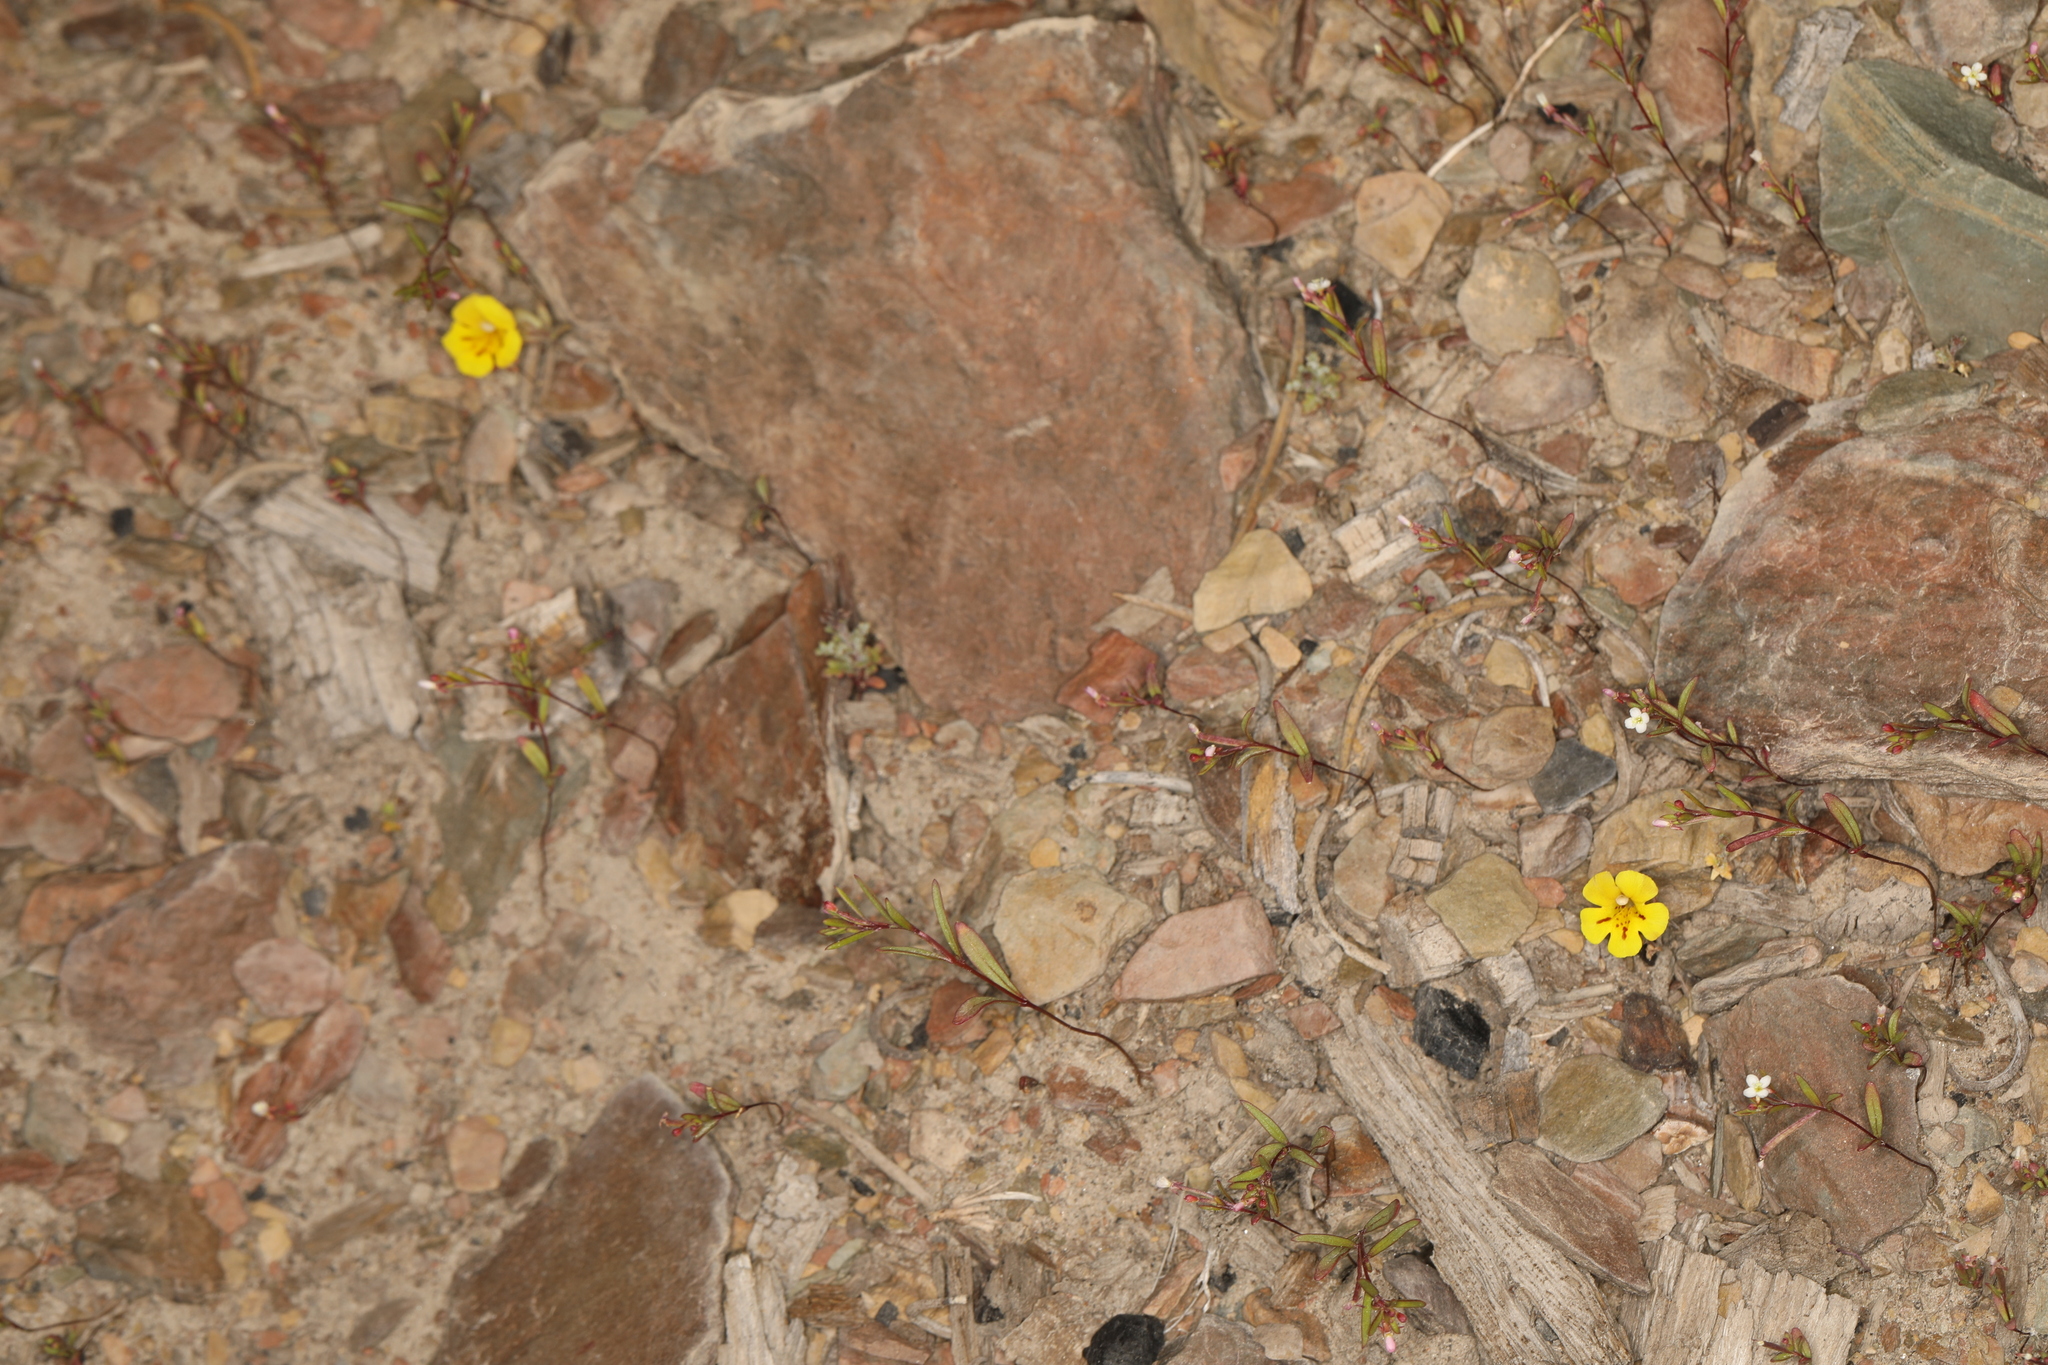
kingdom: Plantae
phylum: Tracheophyta
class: Magnoliopsida
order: Lamiales
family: Phrymaceae
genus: Diplacus
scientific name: Diplacus mephiticus
